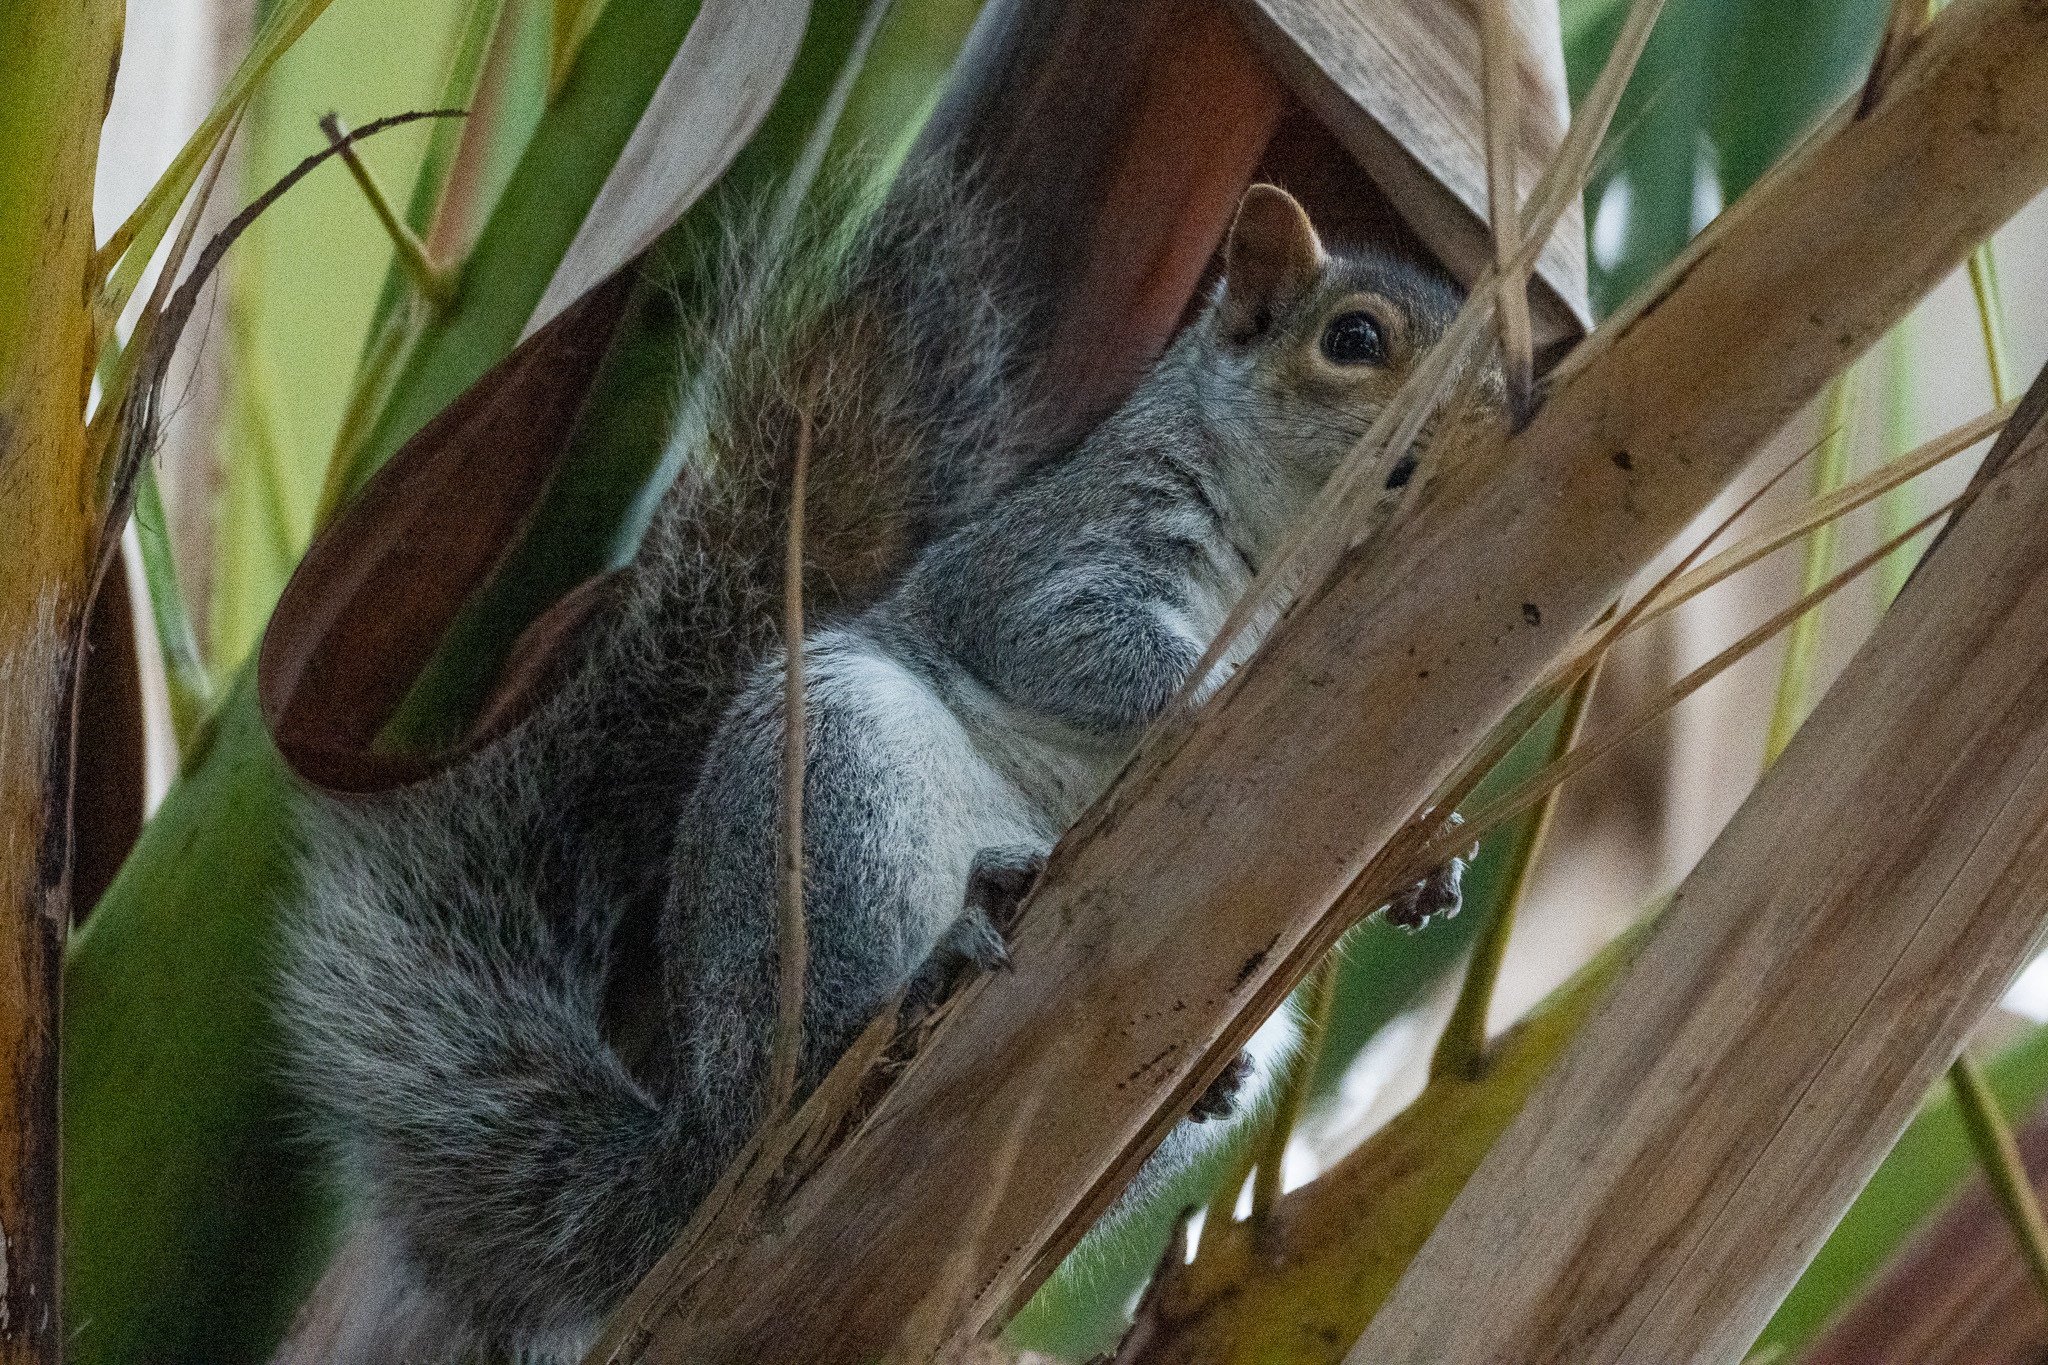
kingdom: Animalia
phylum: Chordata
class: Mammalia
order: Rodentia
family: Sciuridae
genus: Sciurus
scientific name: Sciurus carolinensis
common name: Eastern gray squirrel
